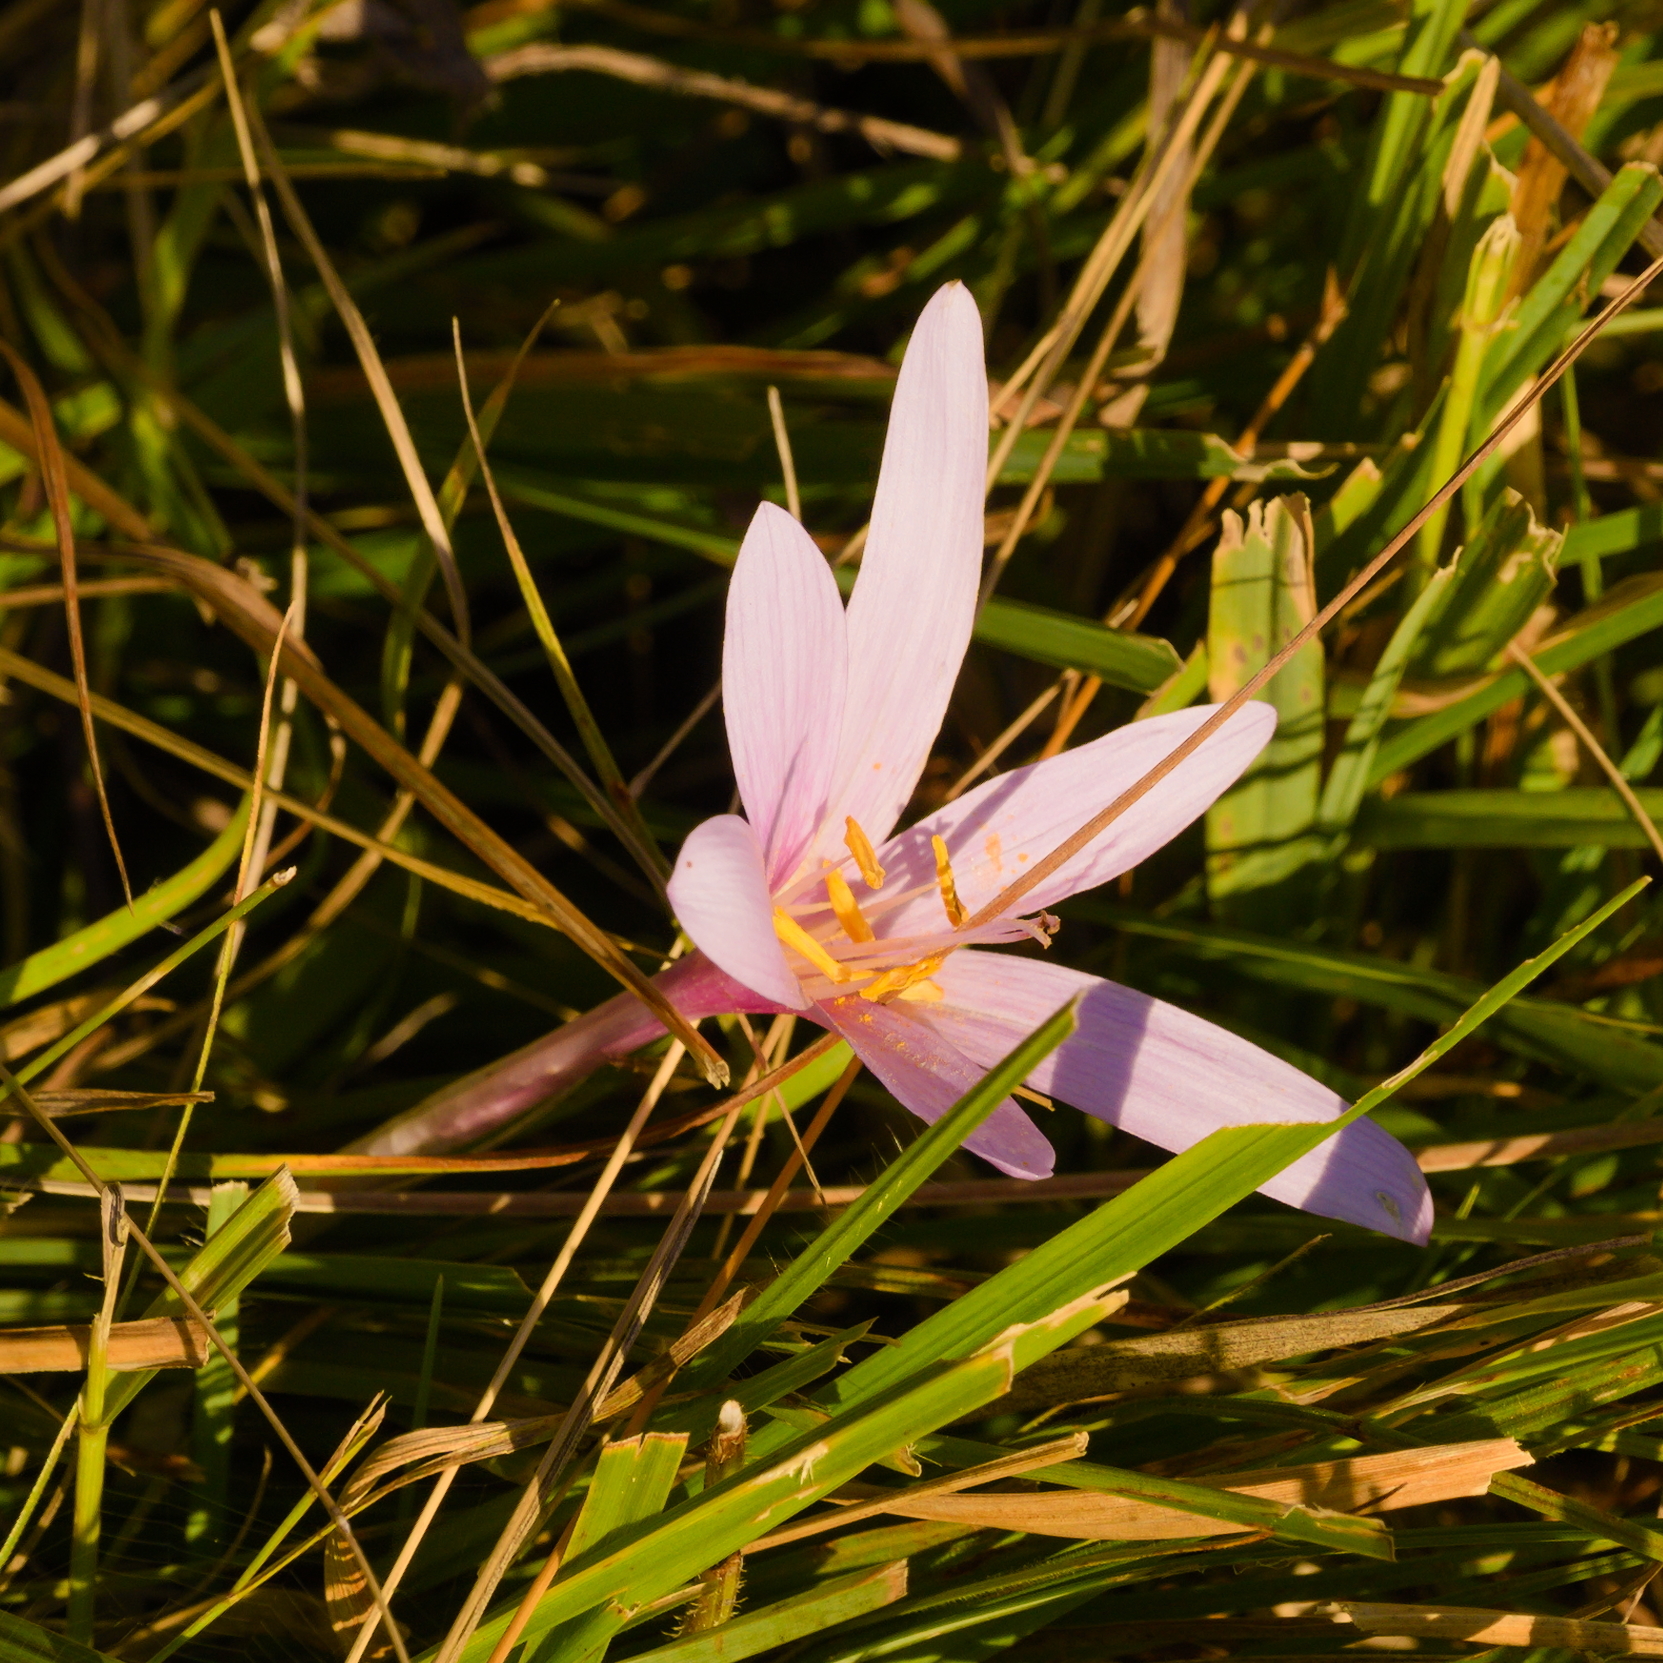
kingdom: Plantae
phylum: Tracheophyta
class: Liliopsida
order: Liliales
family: Colchicaceae
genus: Colchicum
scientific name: Colchicum autumnale
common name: Autumn crocus
